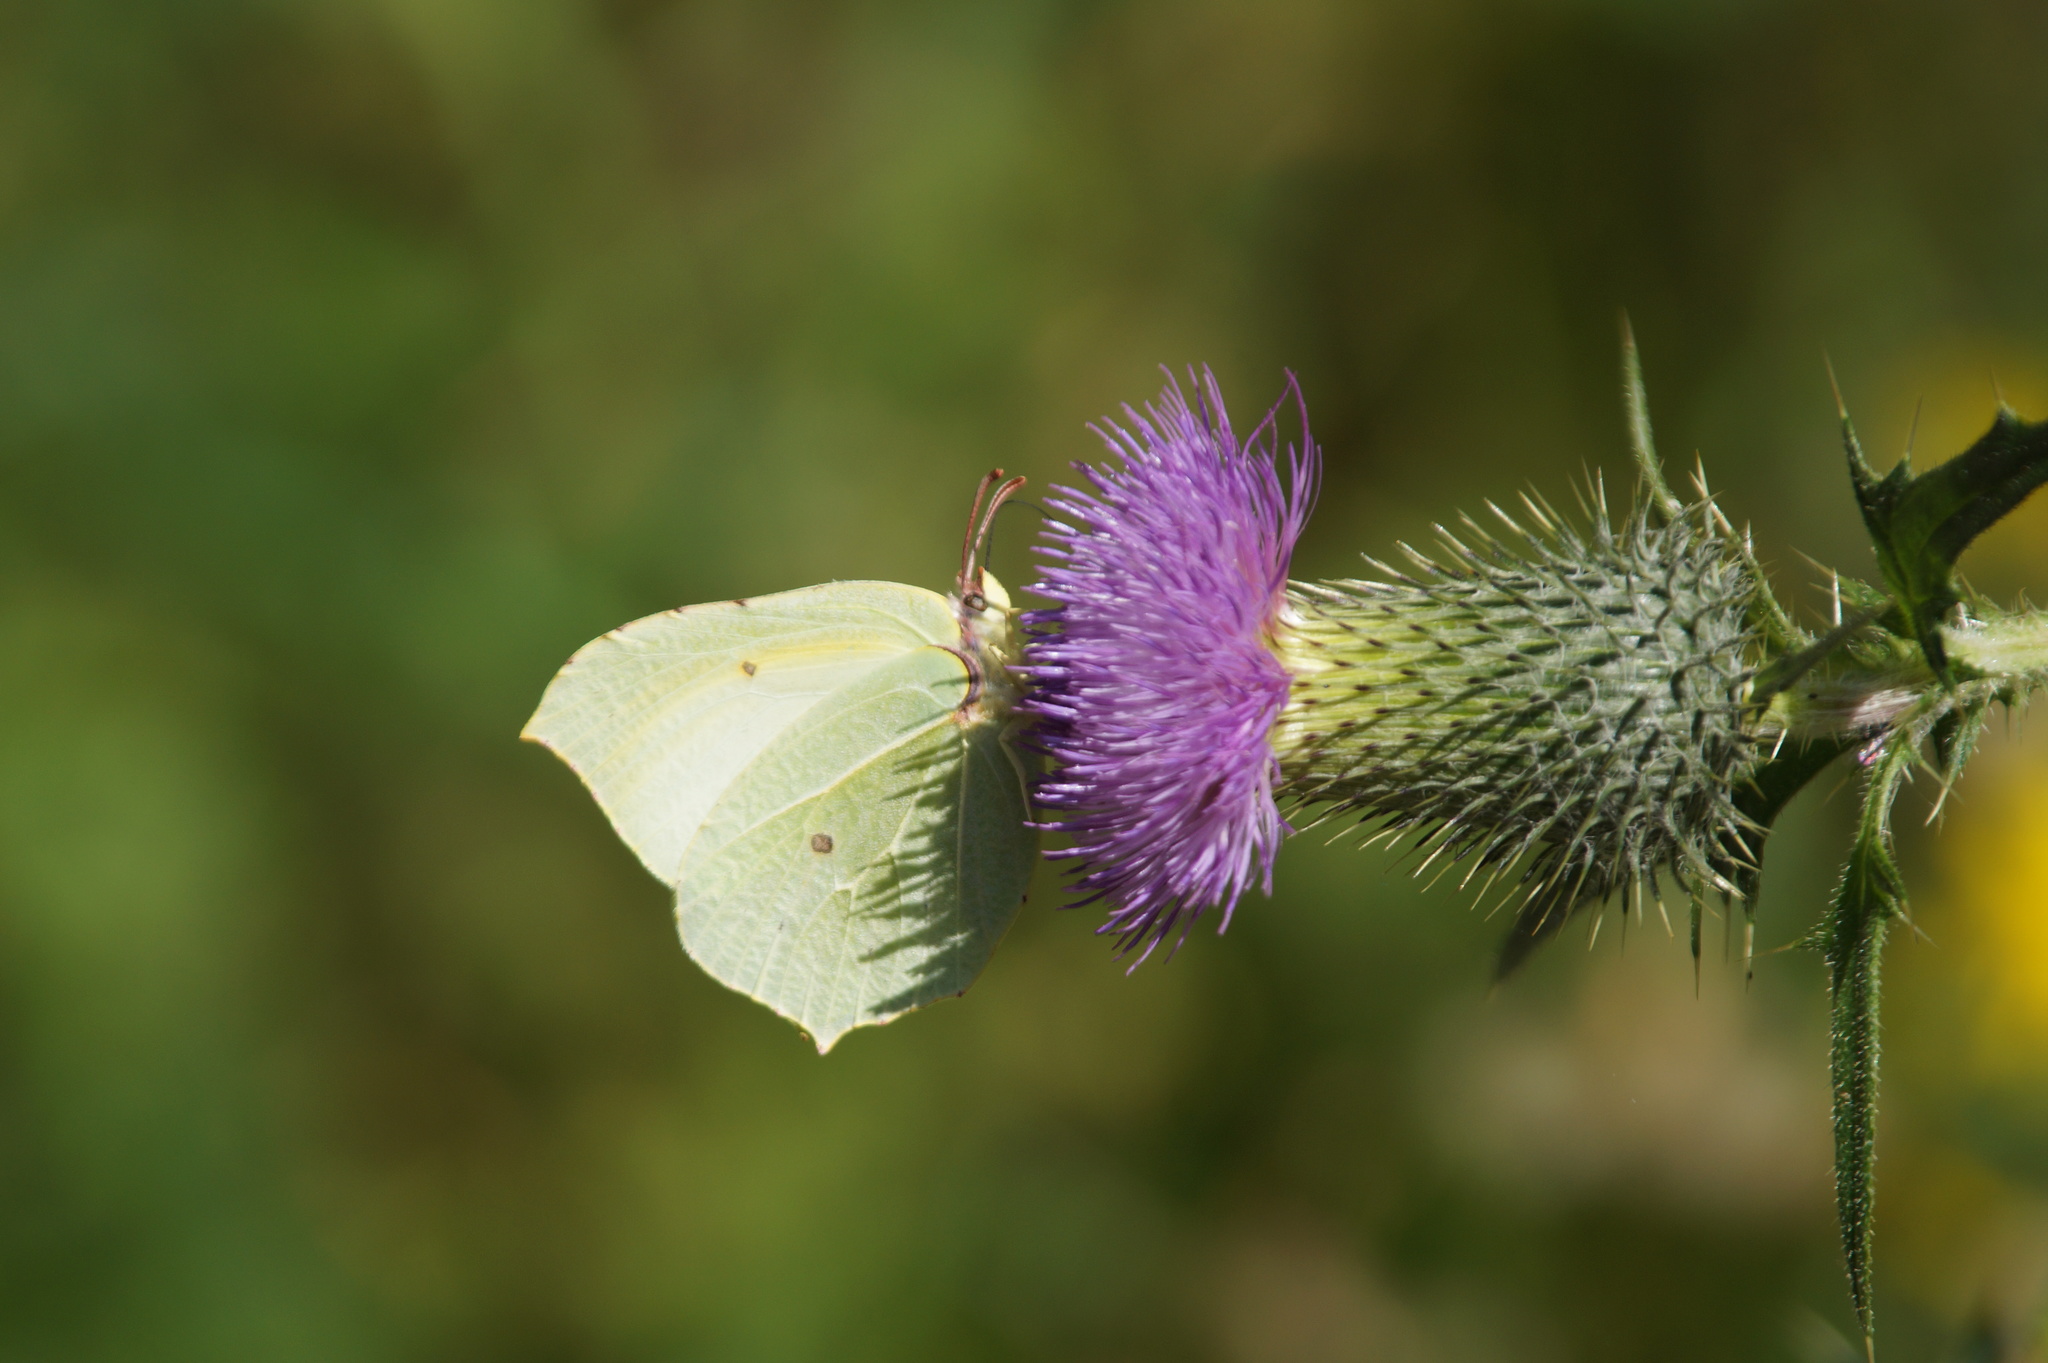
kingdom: Animalia
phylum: Arthropoda
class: Insecta
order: Lepidoptera
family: Pieridae
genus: Gonepteryx
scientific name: Gonepteryx rhamni
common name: Brimstone
